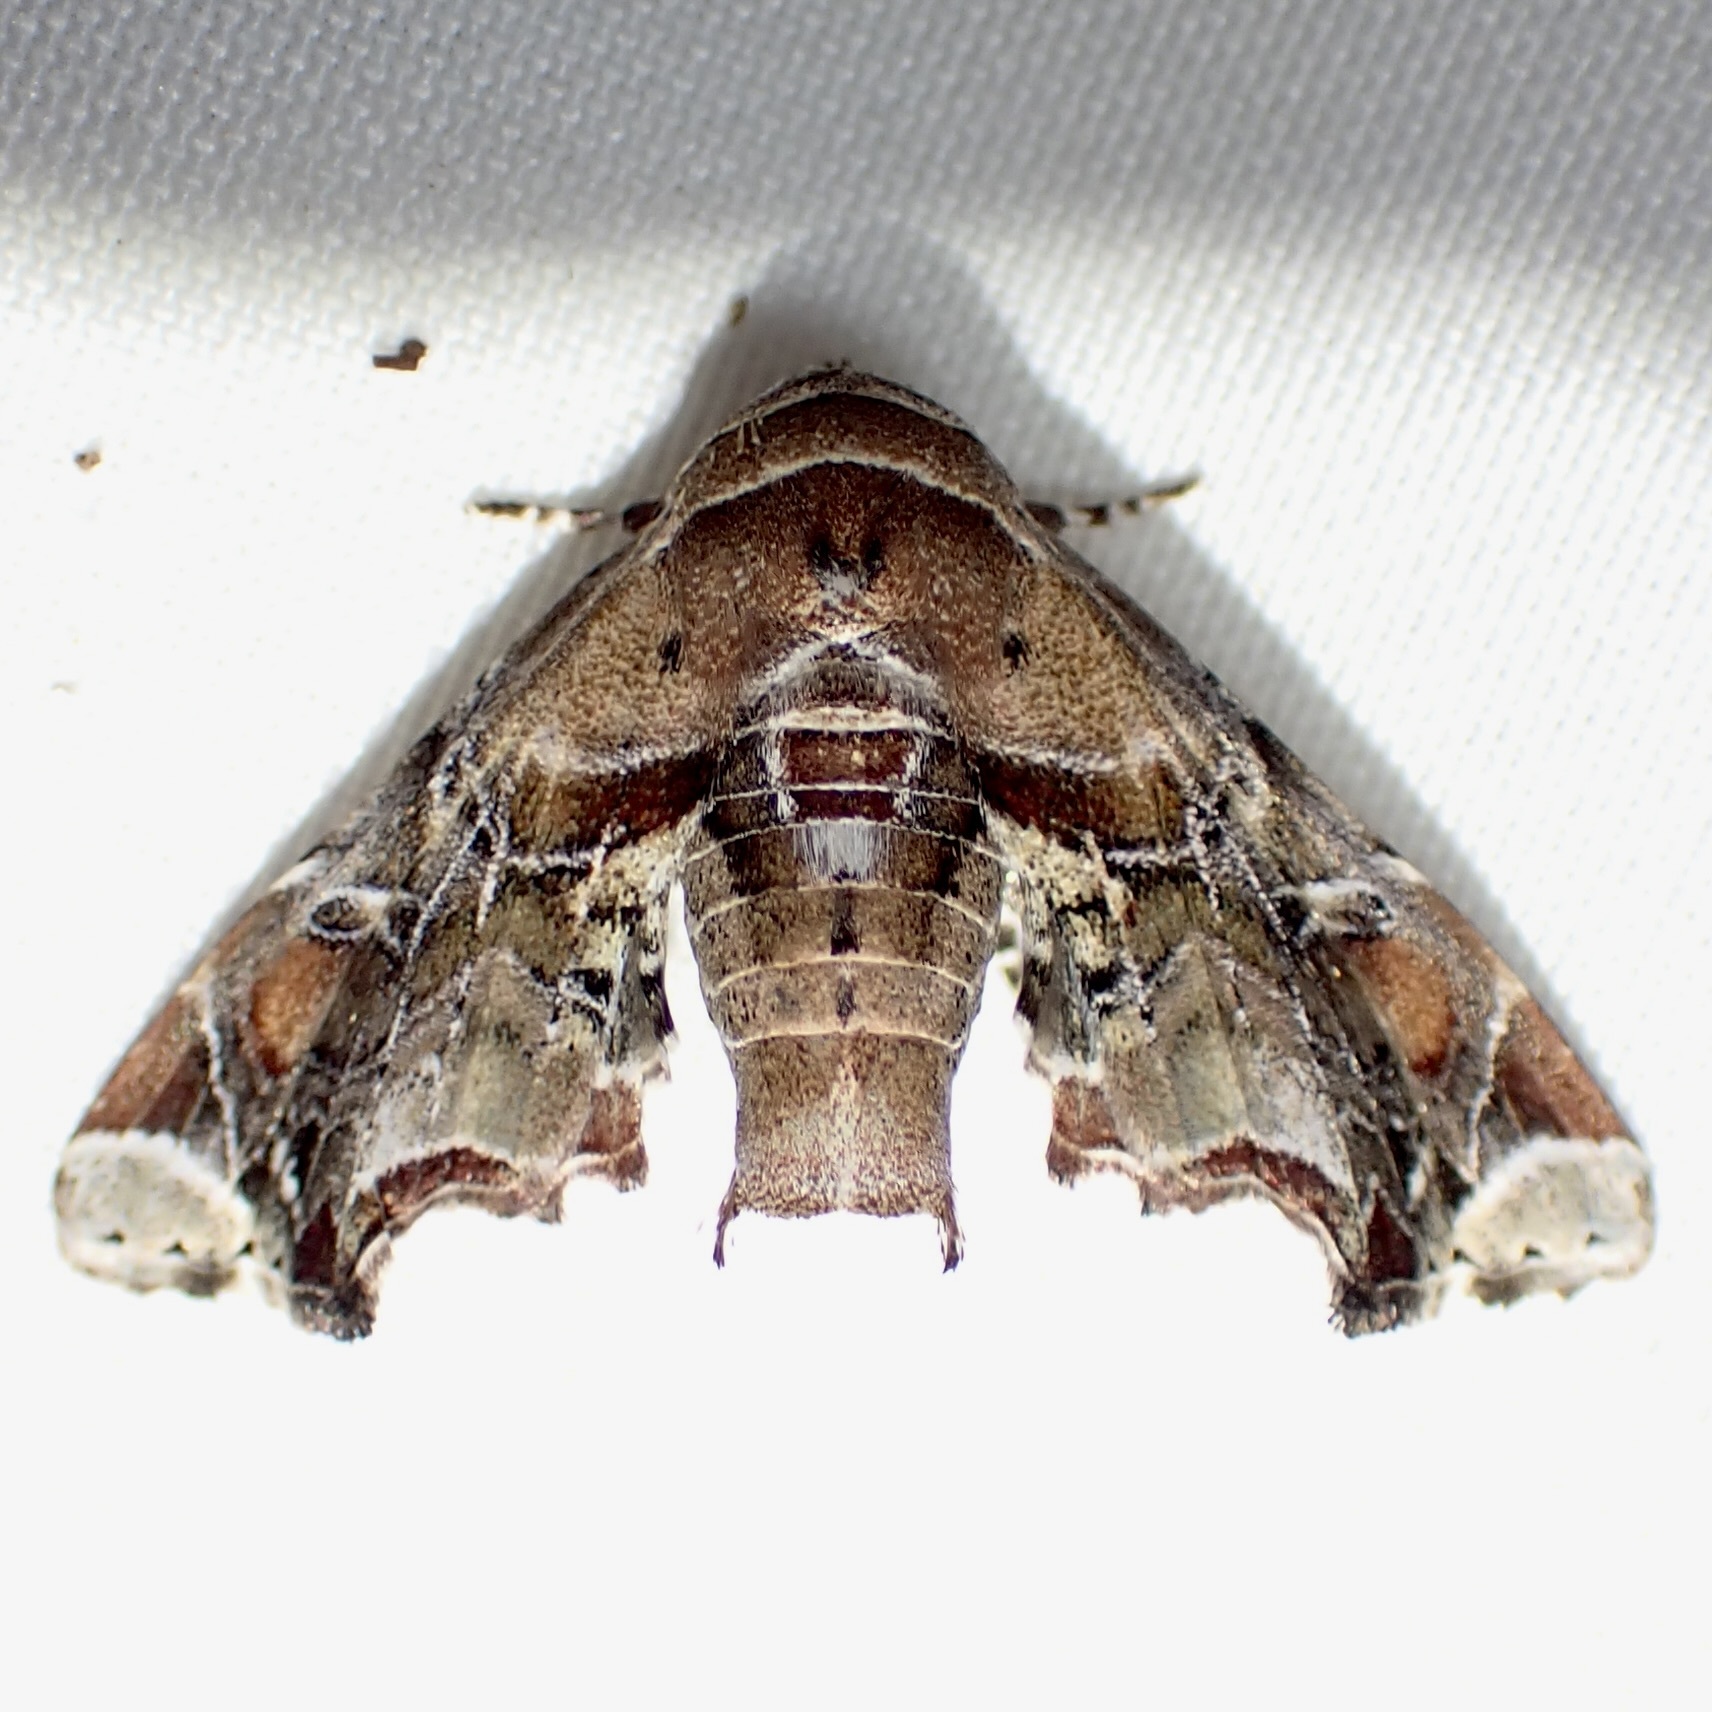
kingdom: Animalia
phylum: Arthropoda
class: Insecta
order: Lepidoptera
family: Euteliidae
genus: Eutelia
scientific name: Eutelia furcata
